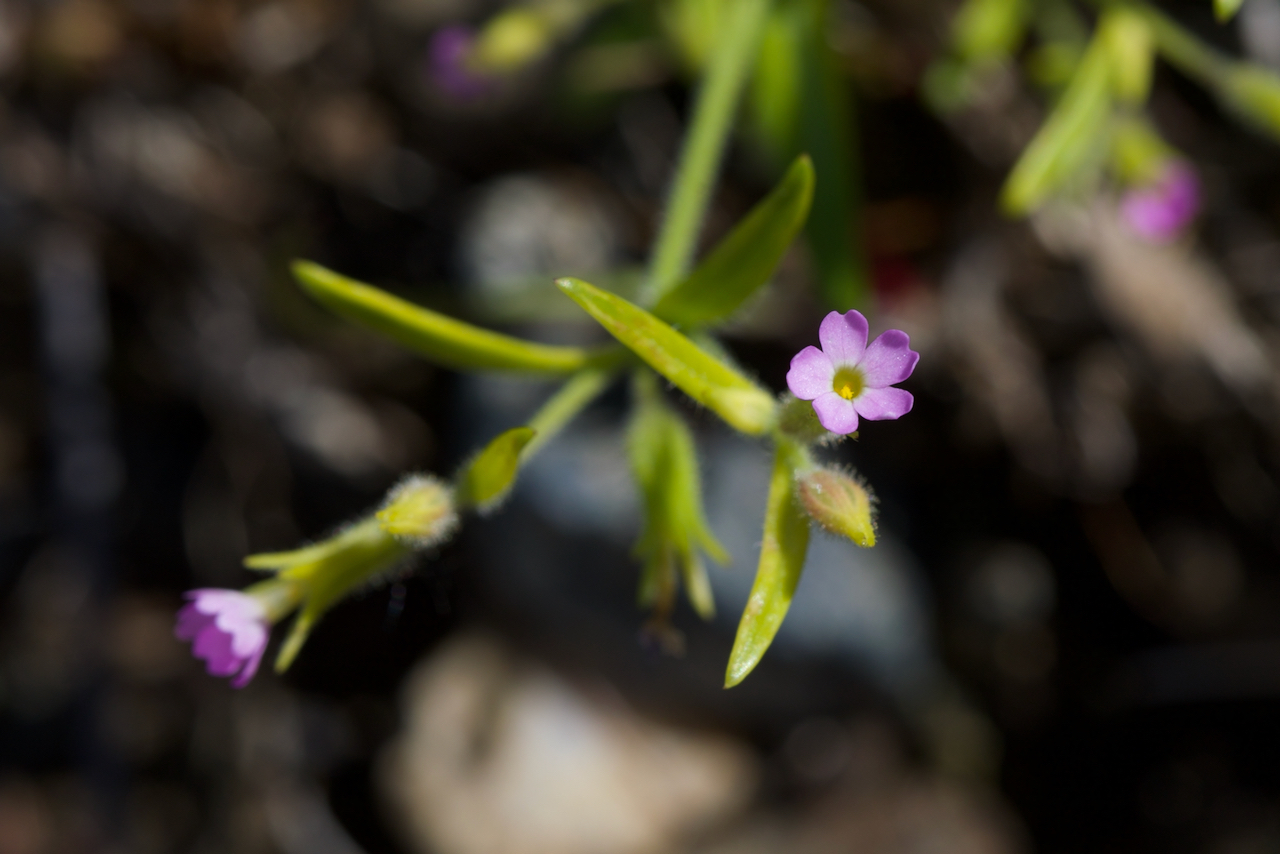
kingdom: Plantae
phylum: Tracheophyta
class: Magnoliopsida
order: Ericales
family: Polemoniaceae
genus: Phlox
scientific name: Phlox gracilis
